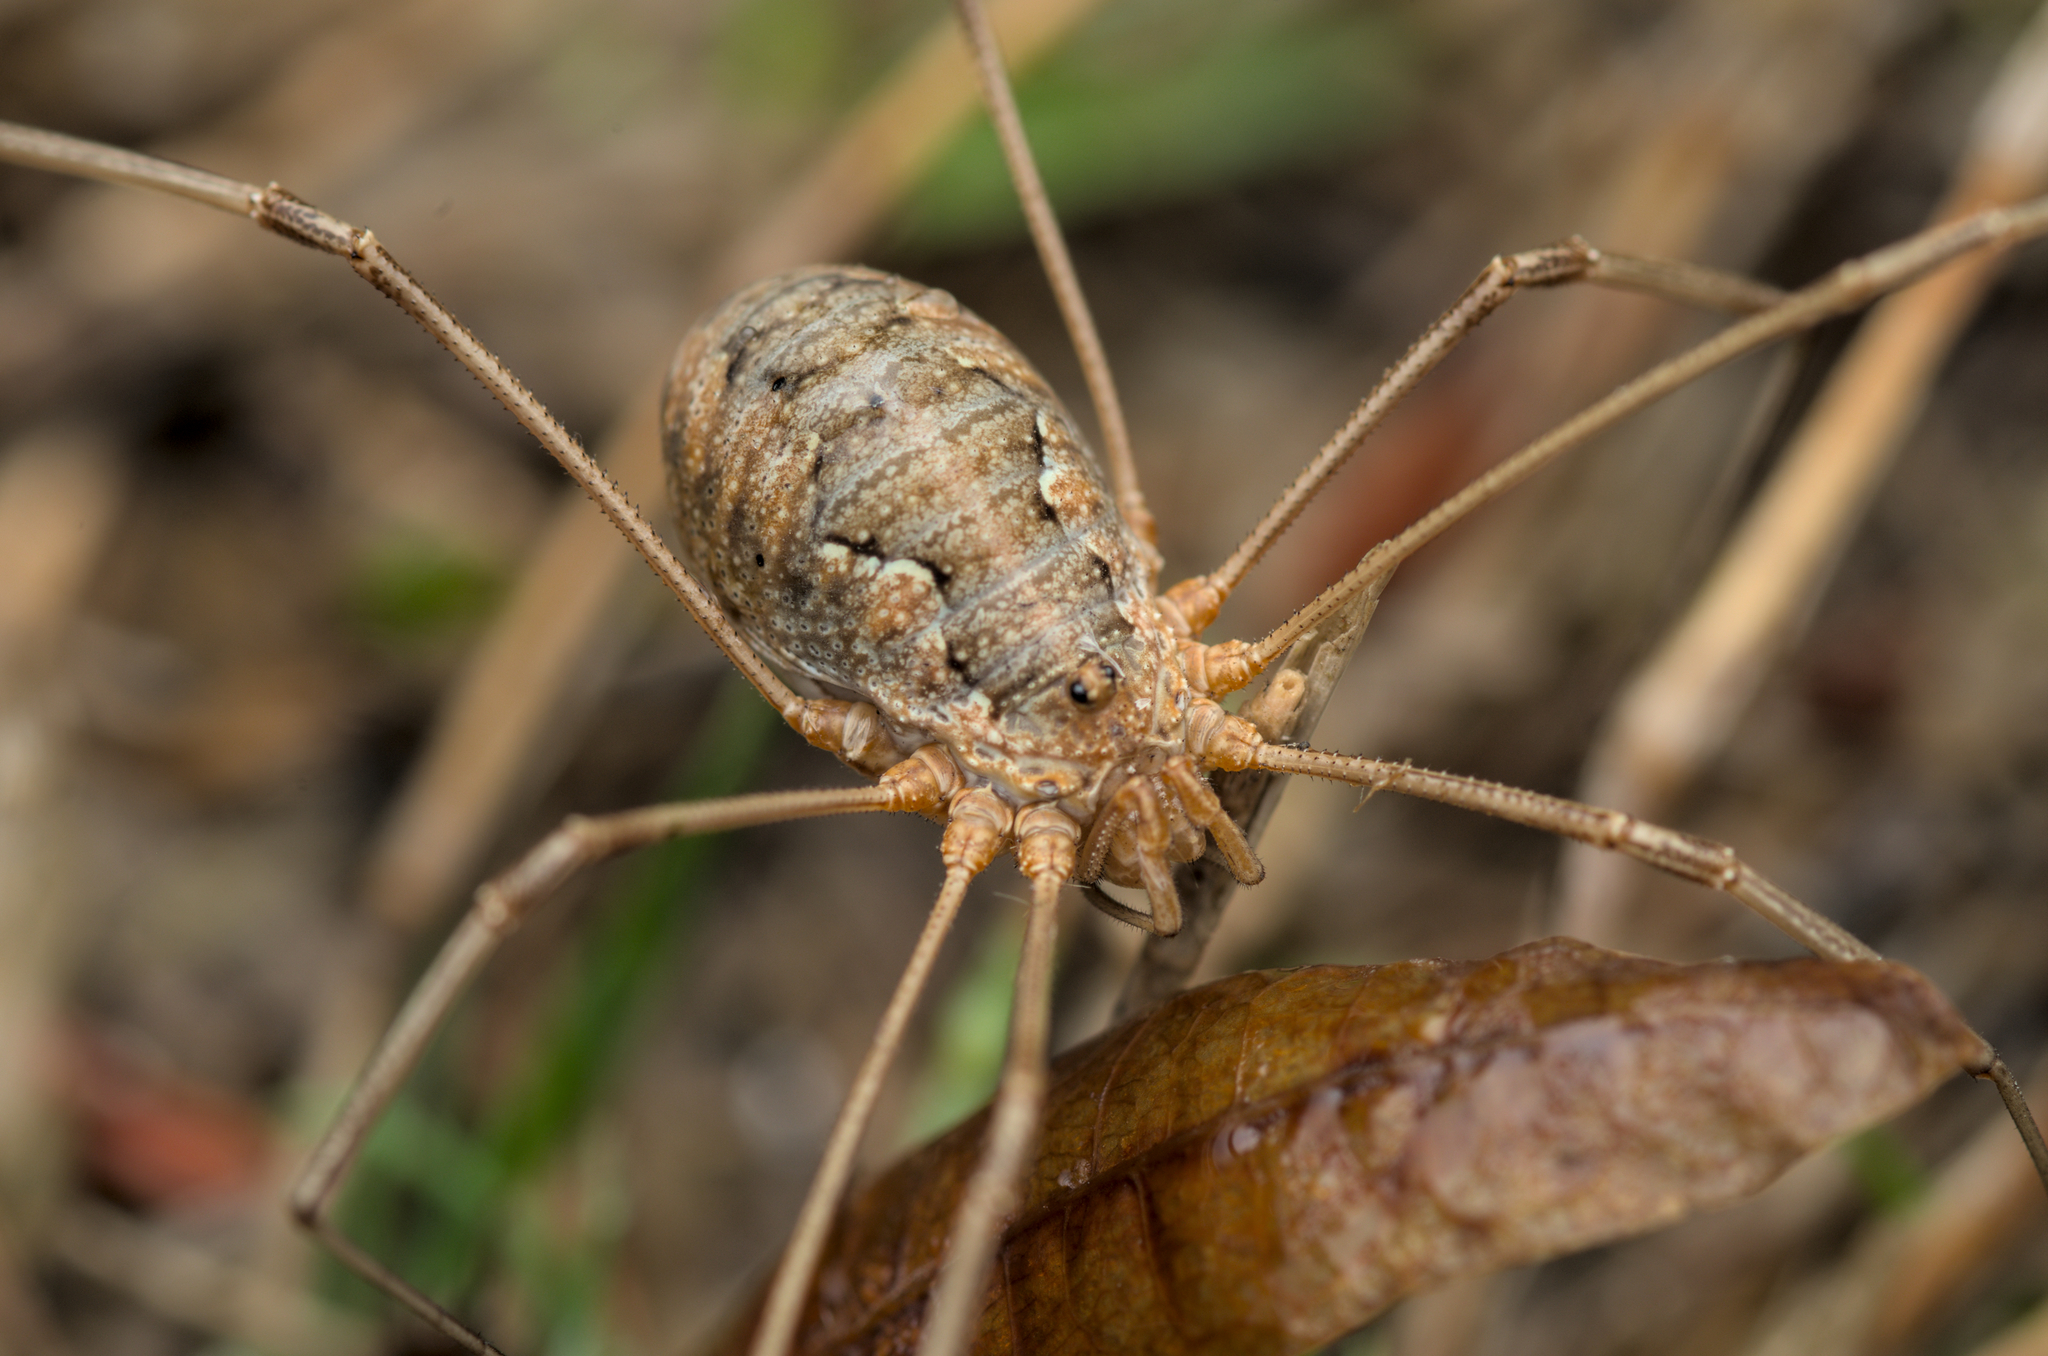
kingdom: Animalia
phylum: Arthropoda
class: Arachnida
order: Opiliones
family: Phalangiidae
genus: Phalangium
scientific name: Phalangium opilio
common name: Daddy longleg
